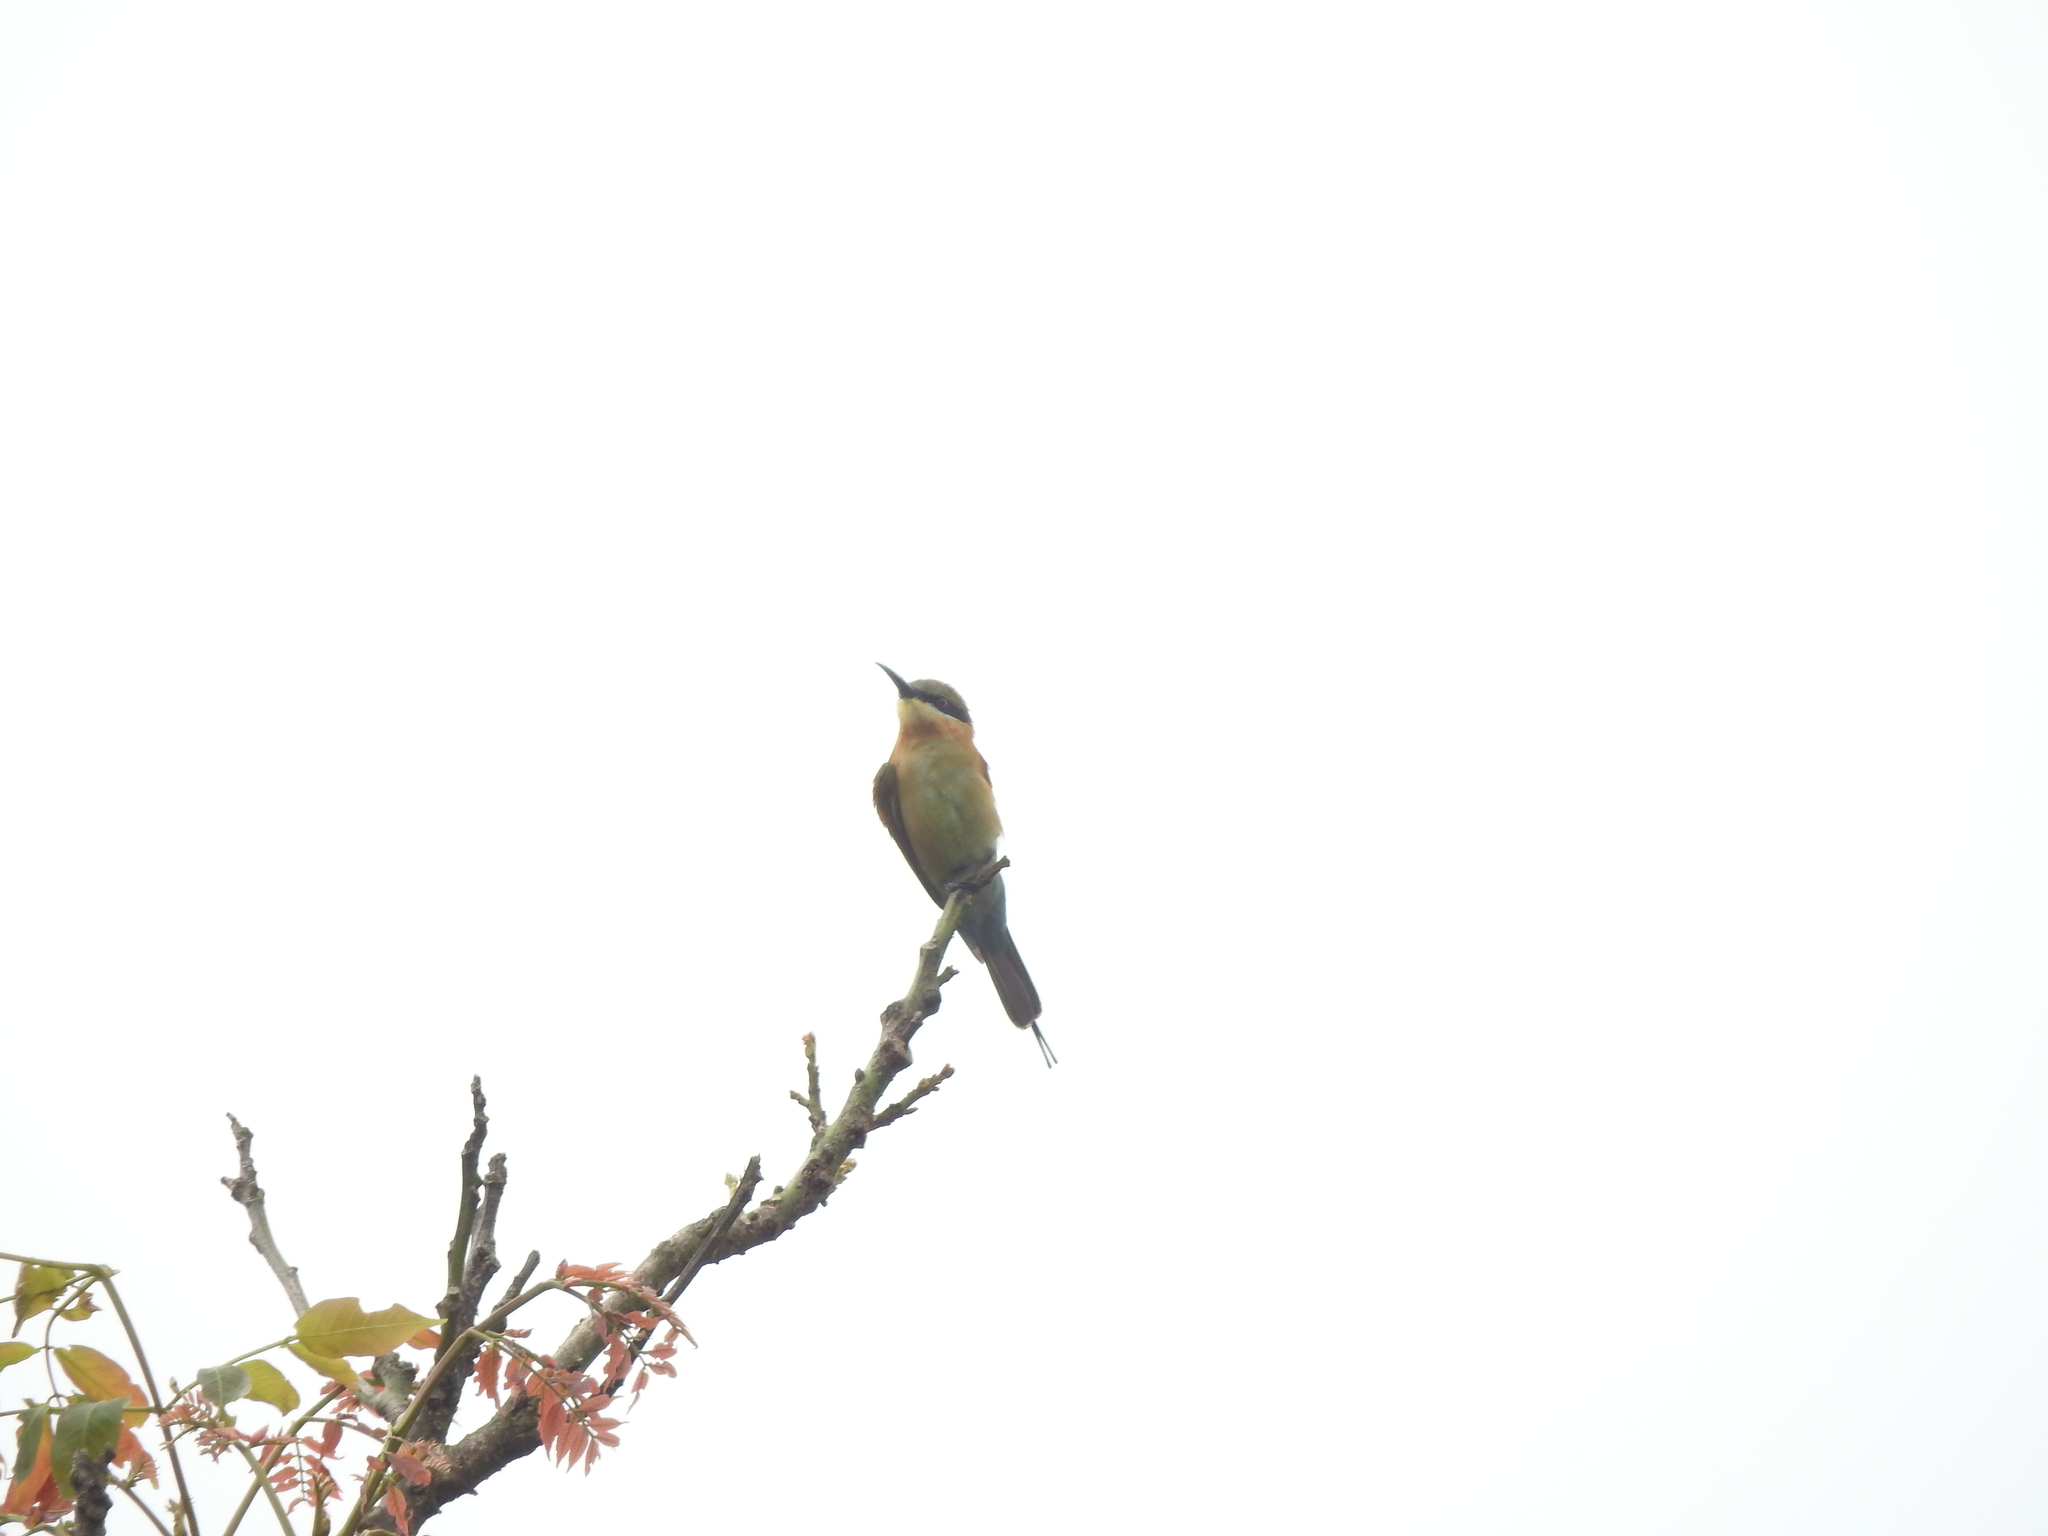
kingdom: Animalia
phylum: Chordata
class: Aves
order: Coraciiformes
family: Meropidae
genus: Merops
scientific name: Merops philippinus
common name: Blue-tailed bee-eater
